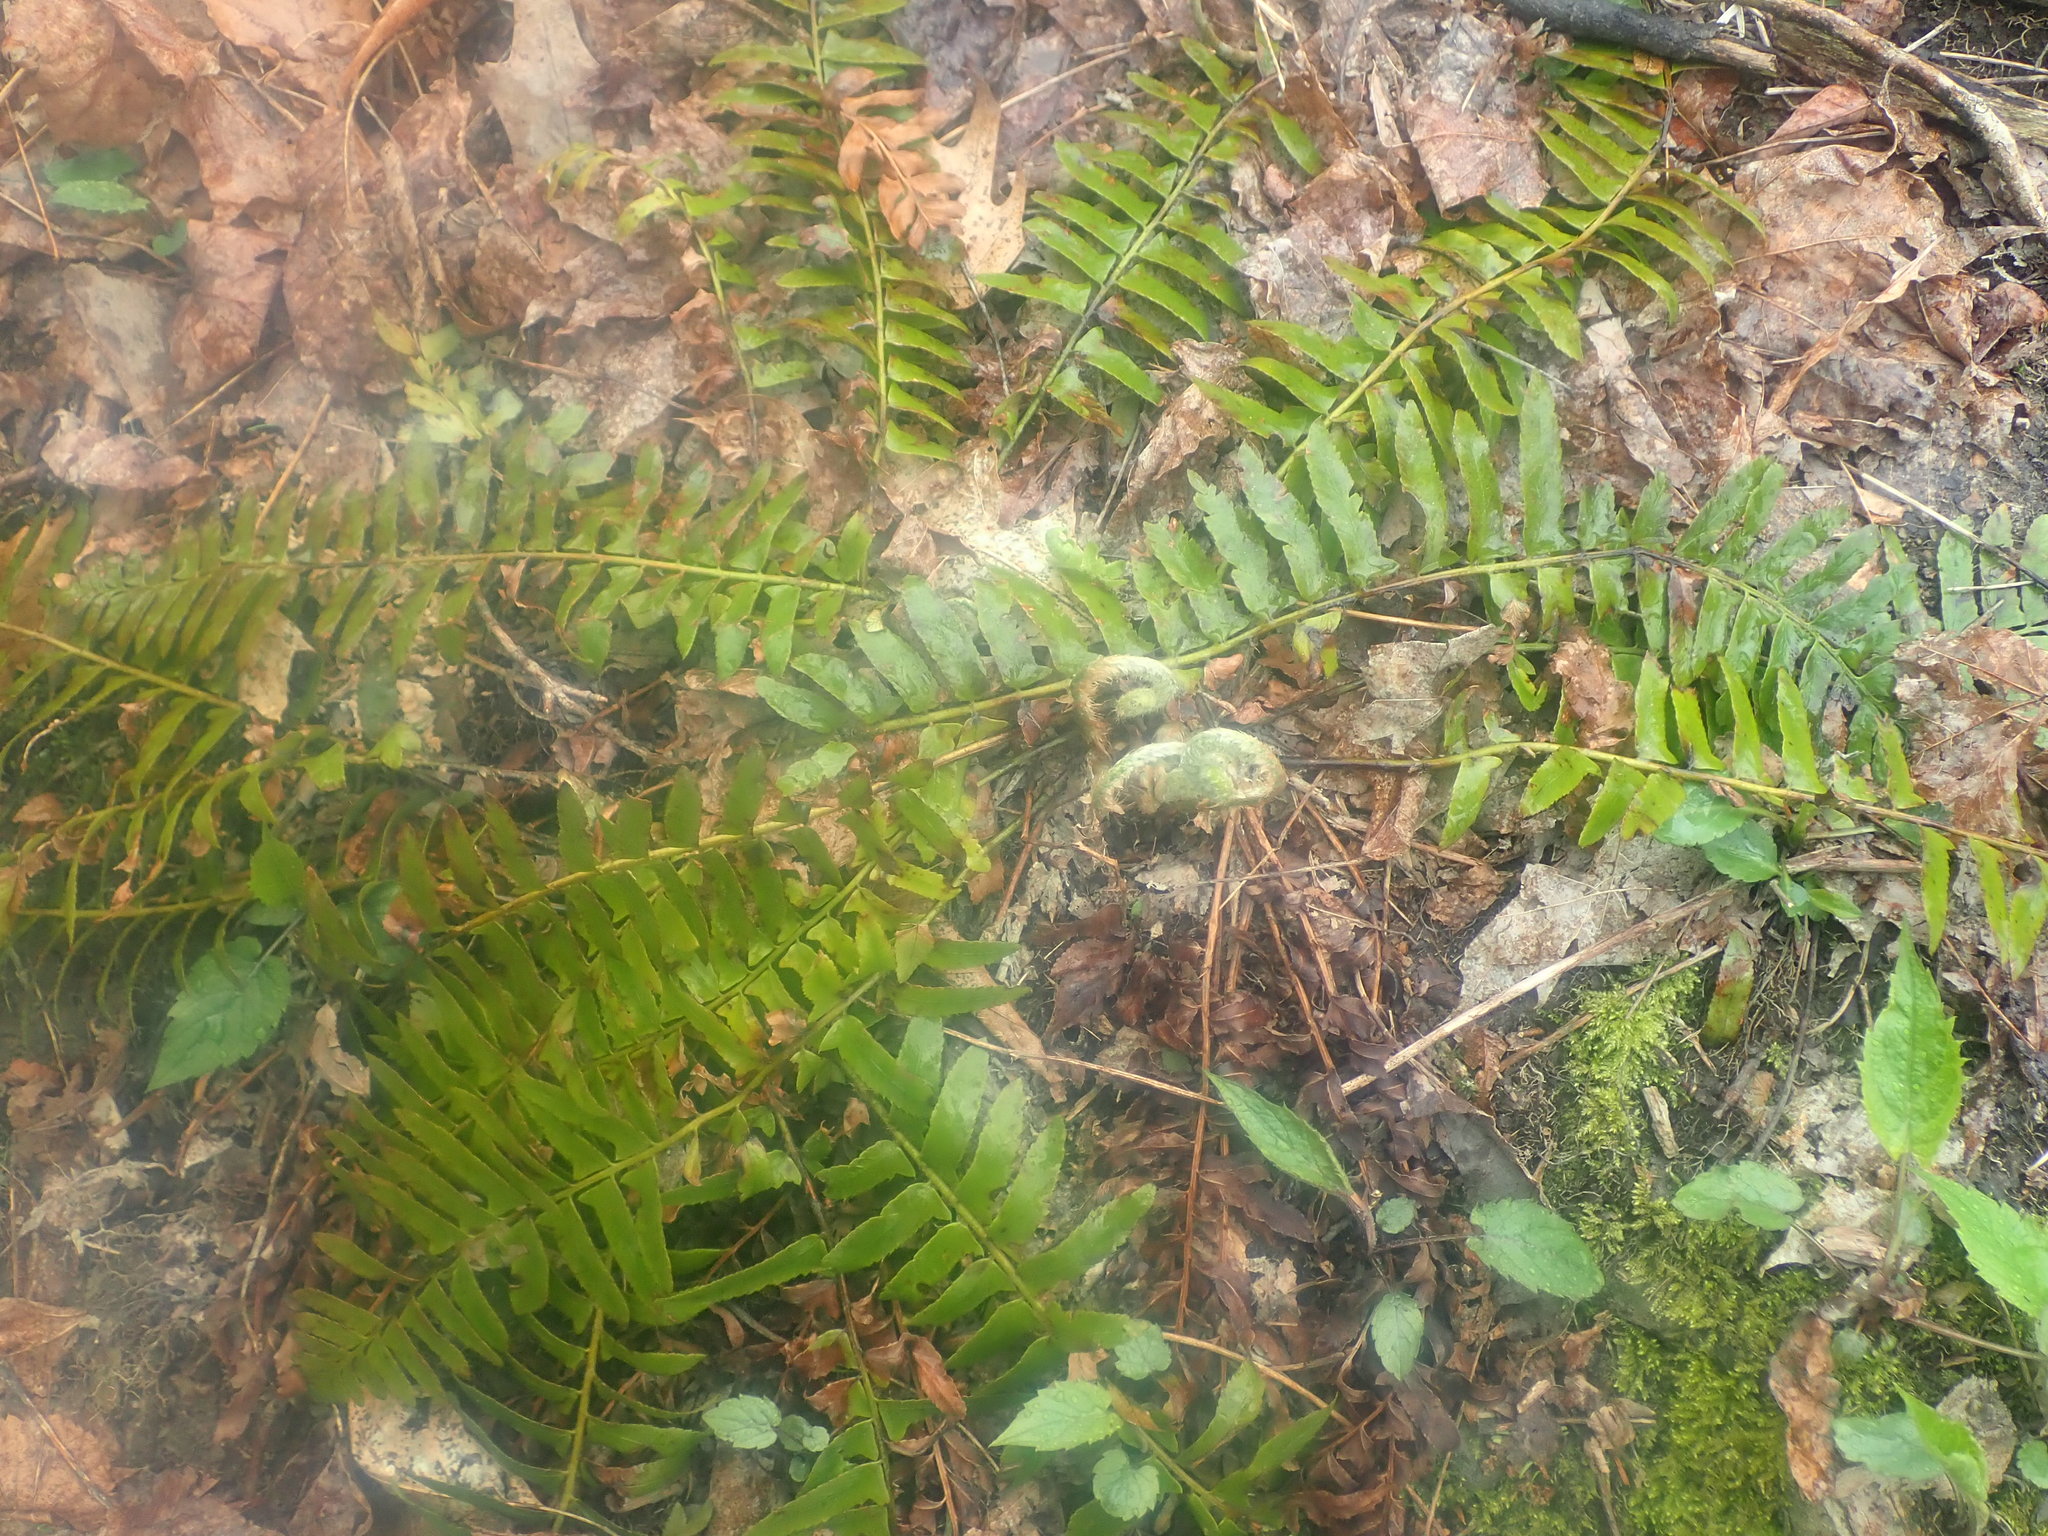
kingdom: Plantae
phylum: Tracheophyta
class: Polypodiopsida
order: Polypodiales
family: Dryopteridaceae
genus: Polystichum
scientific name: Polystichum acrostichoides
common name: Christmas fern
